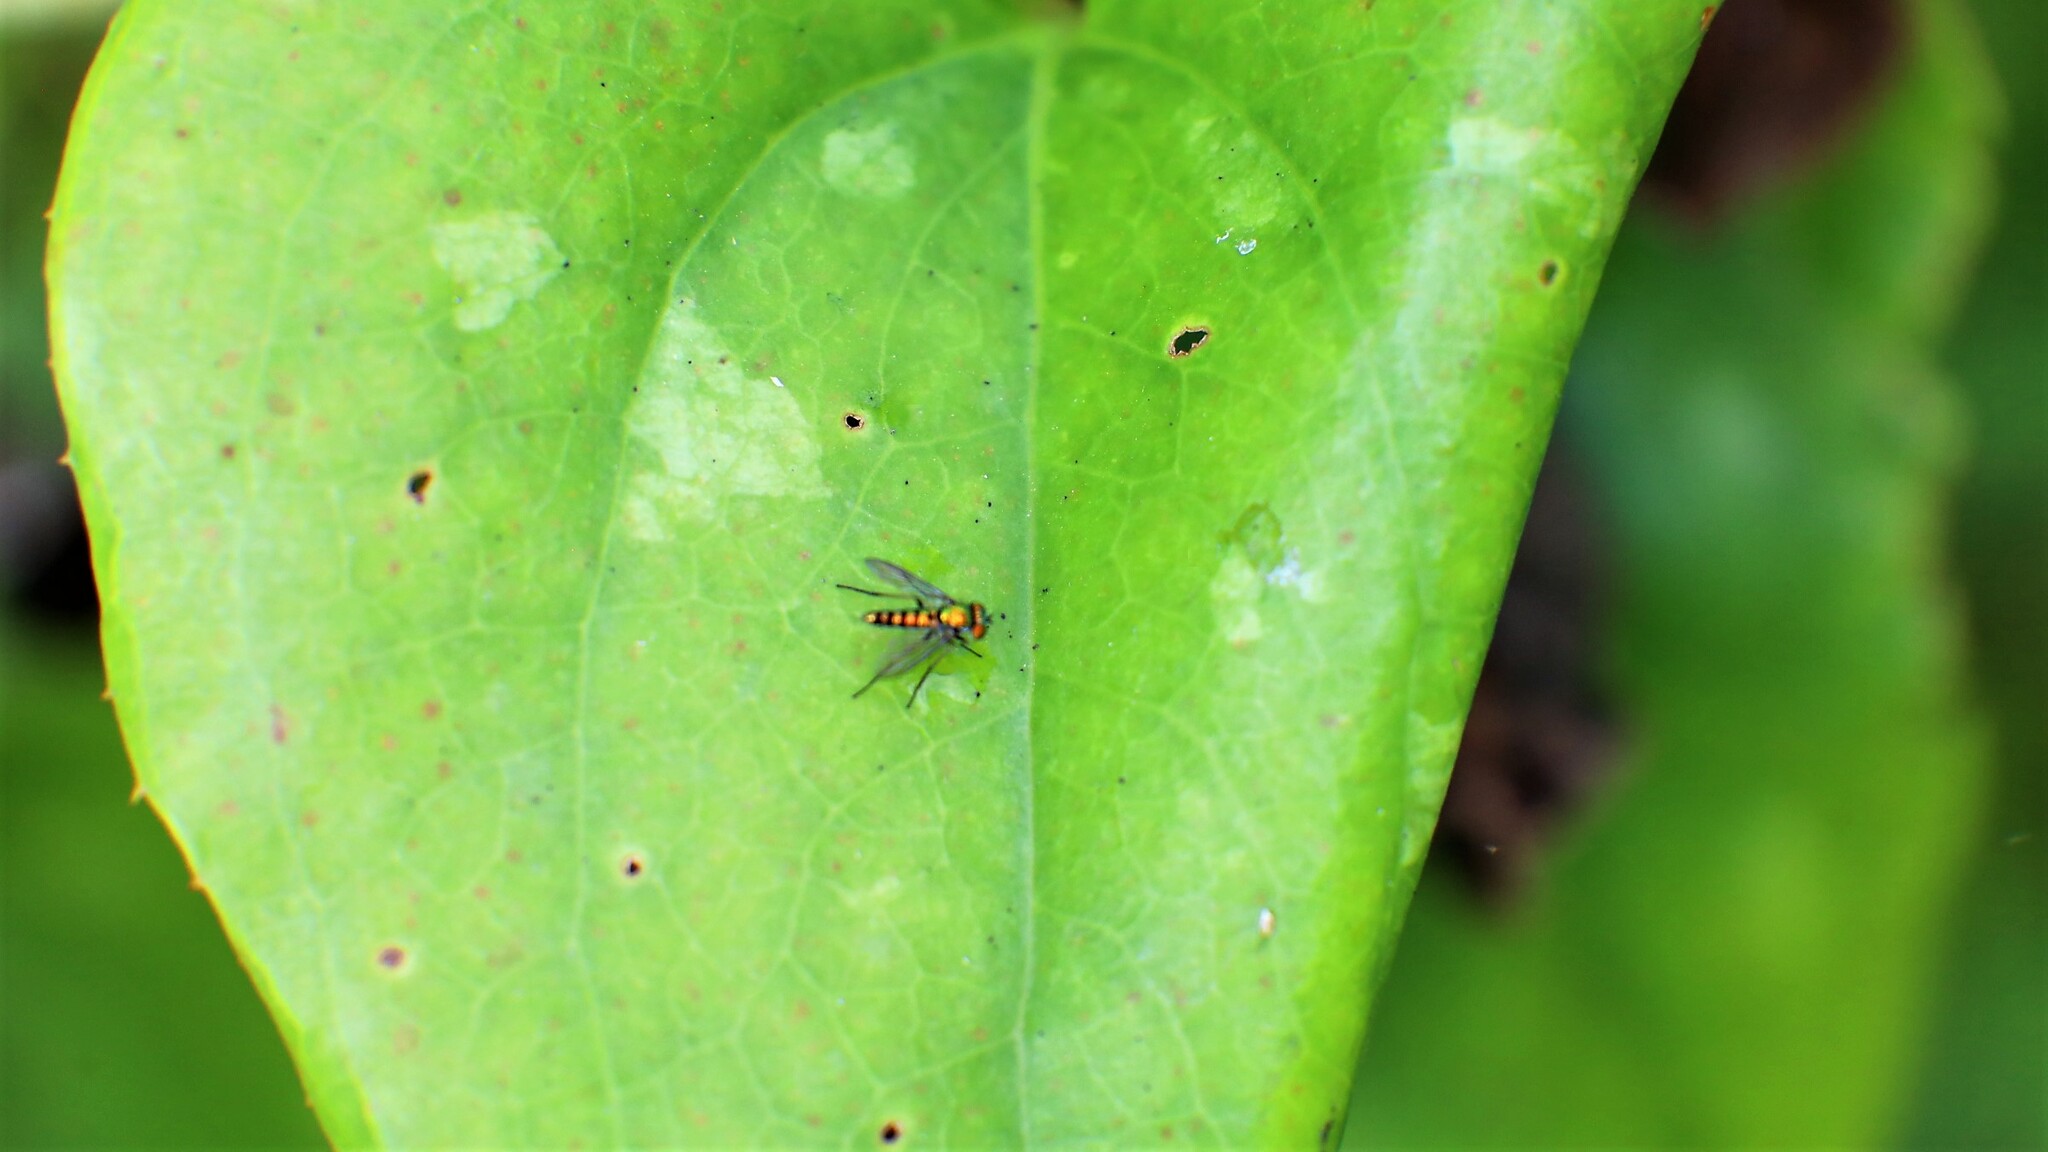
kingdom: Animalia
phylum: Arthropoda
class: Insecta
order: Diptera
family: Dolichopodidae
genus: Condylostylus
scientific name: Condylostylus
